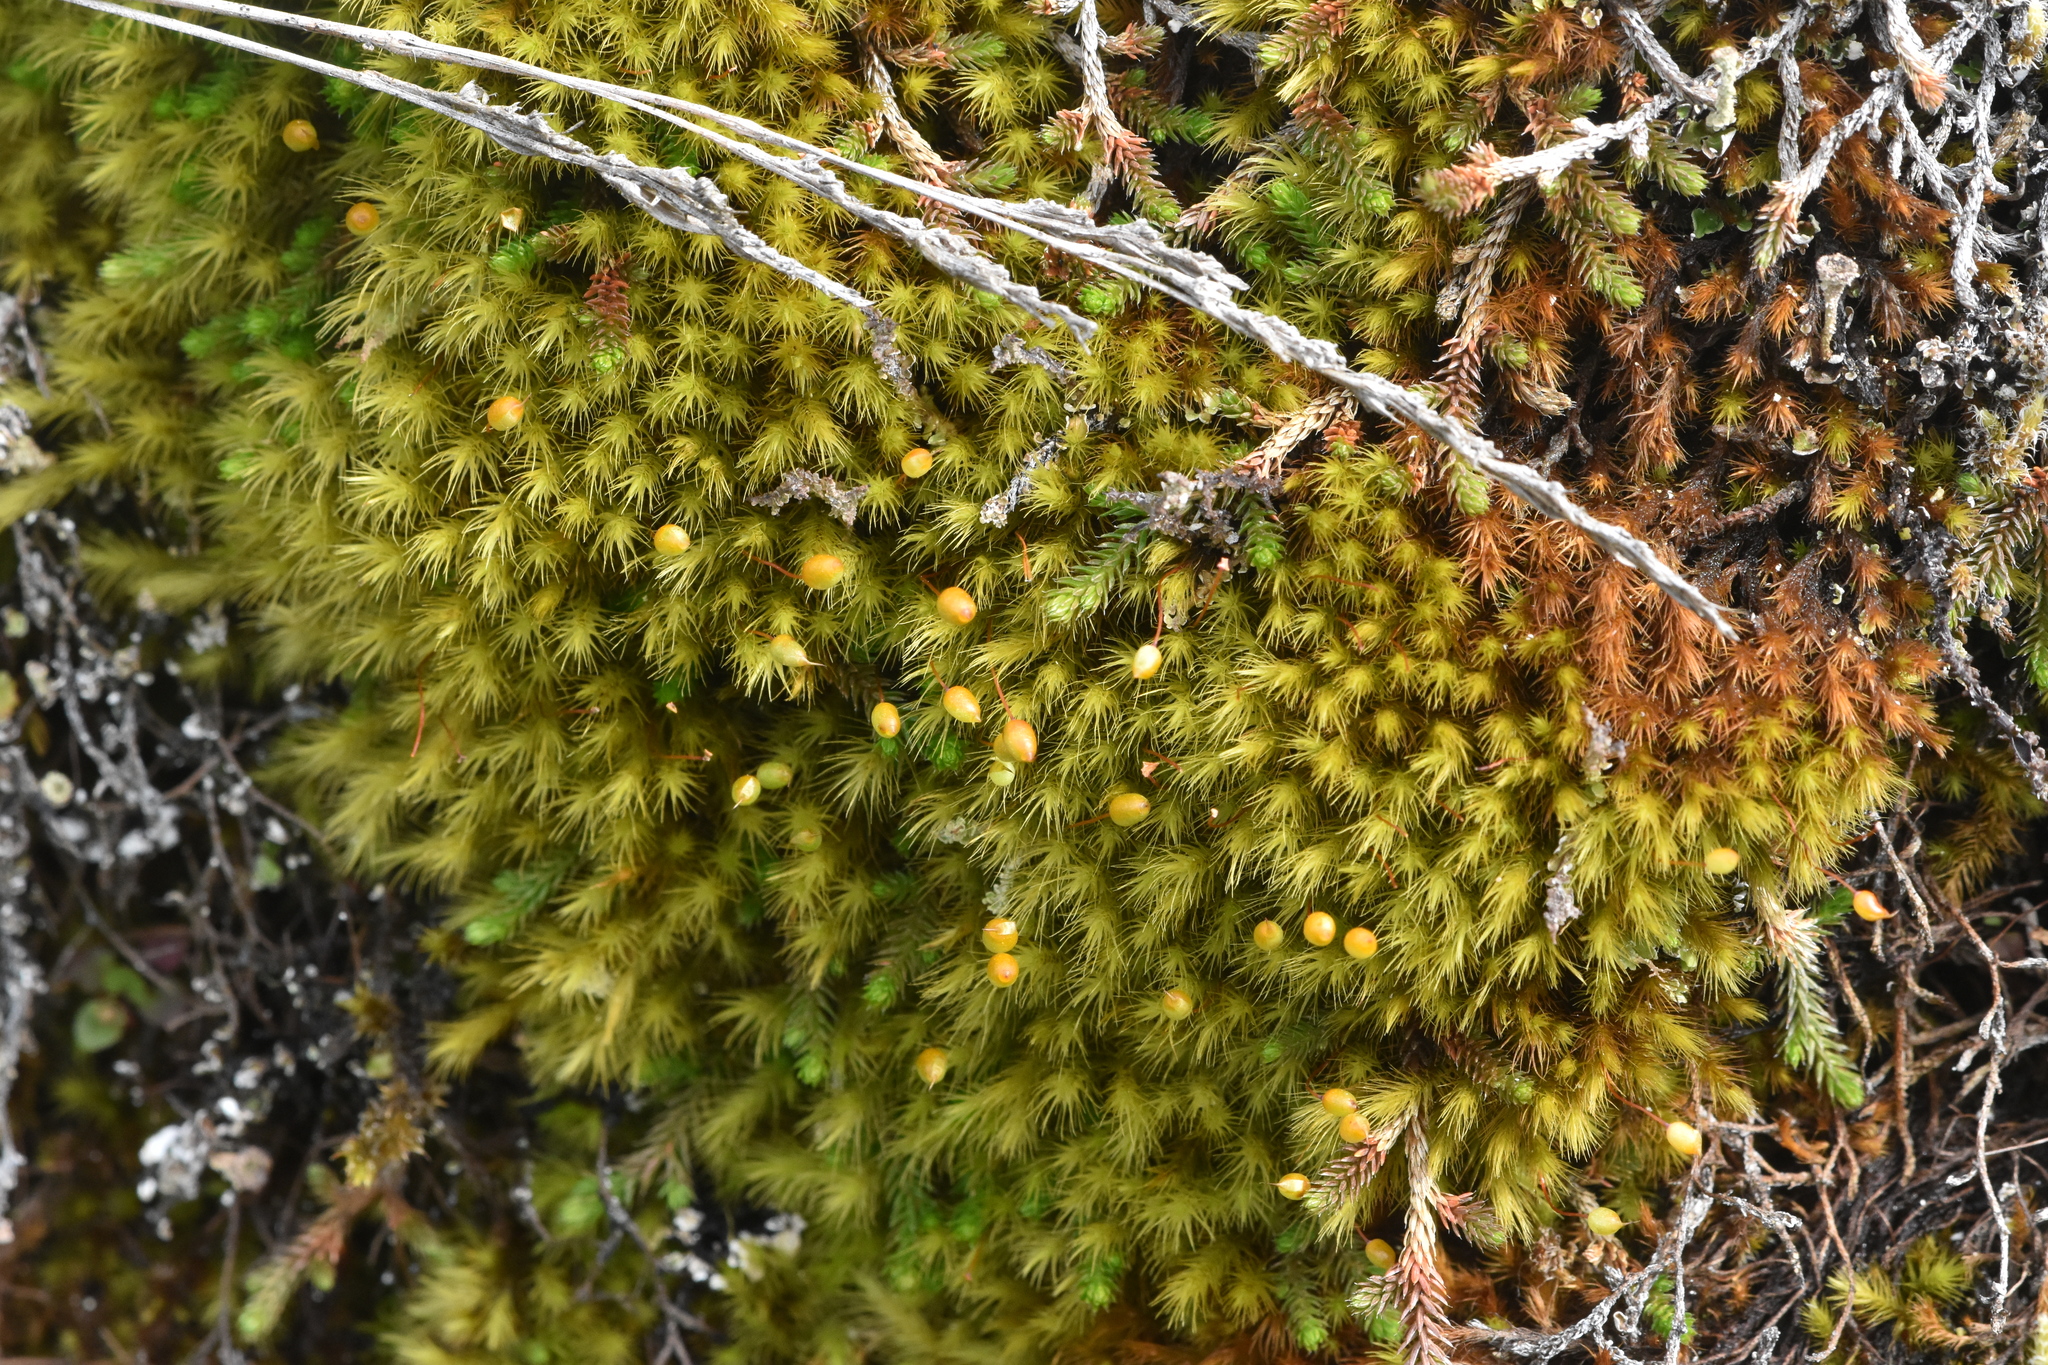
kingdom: Plantae
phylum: Bryophyta
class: Bryopsida
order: Bartramiales
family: Bartramiaceae
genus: Anacolia
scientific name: Anacolia menziesii
